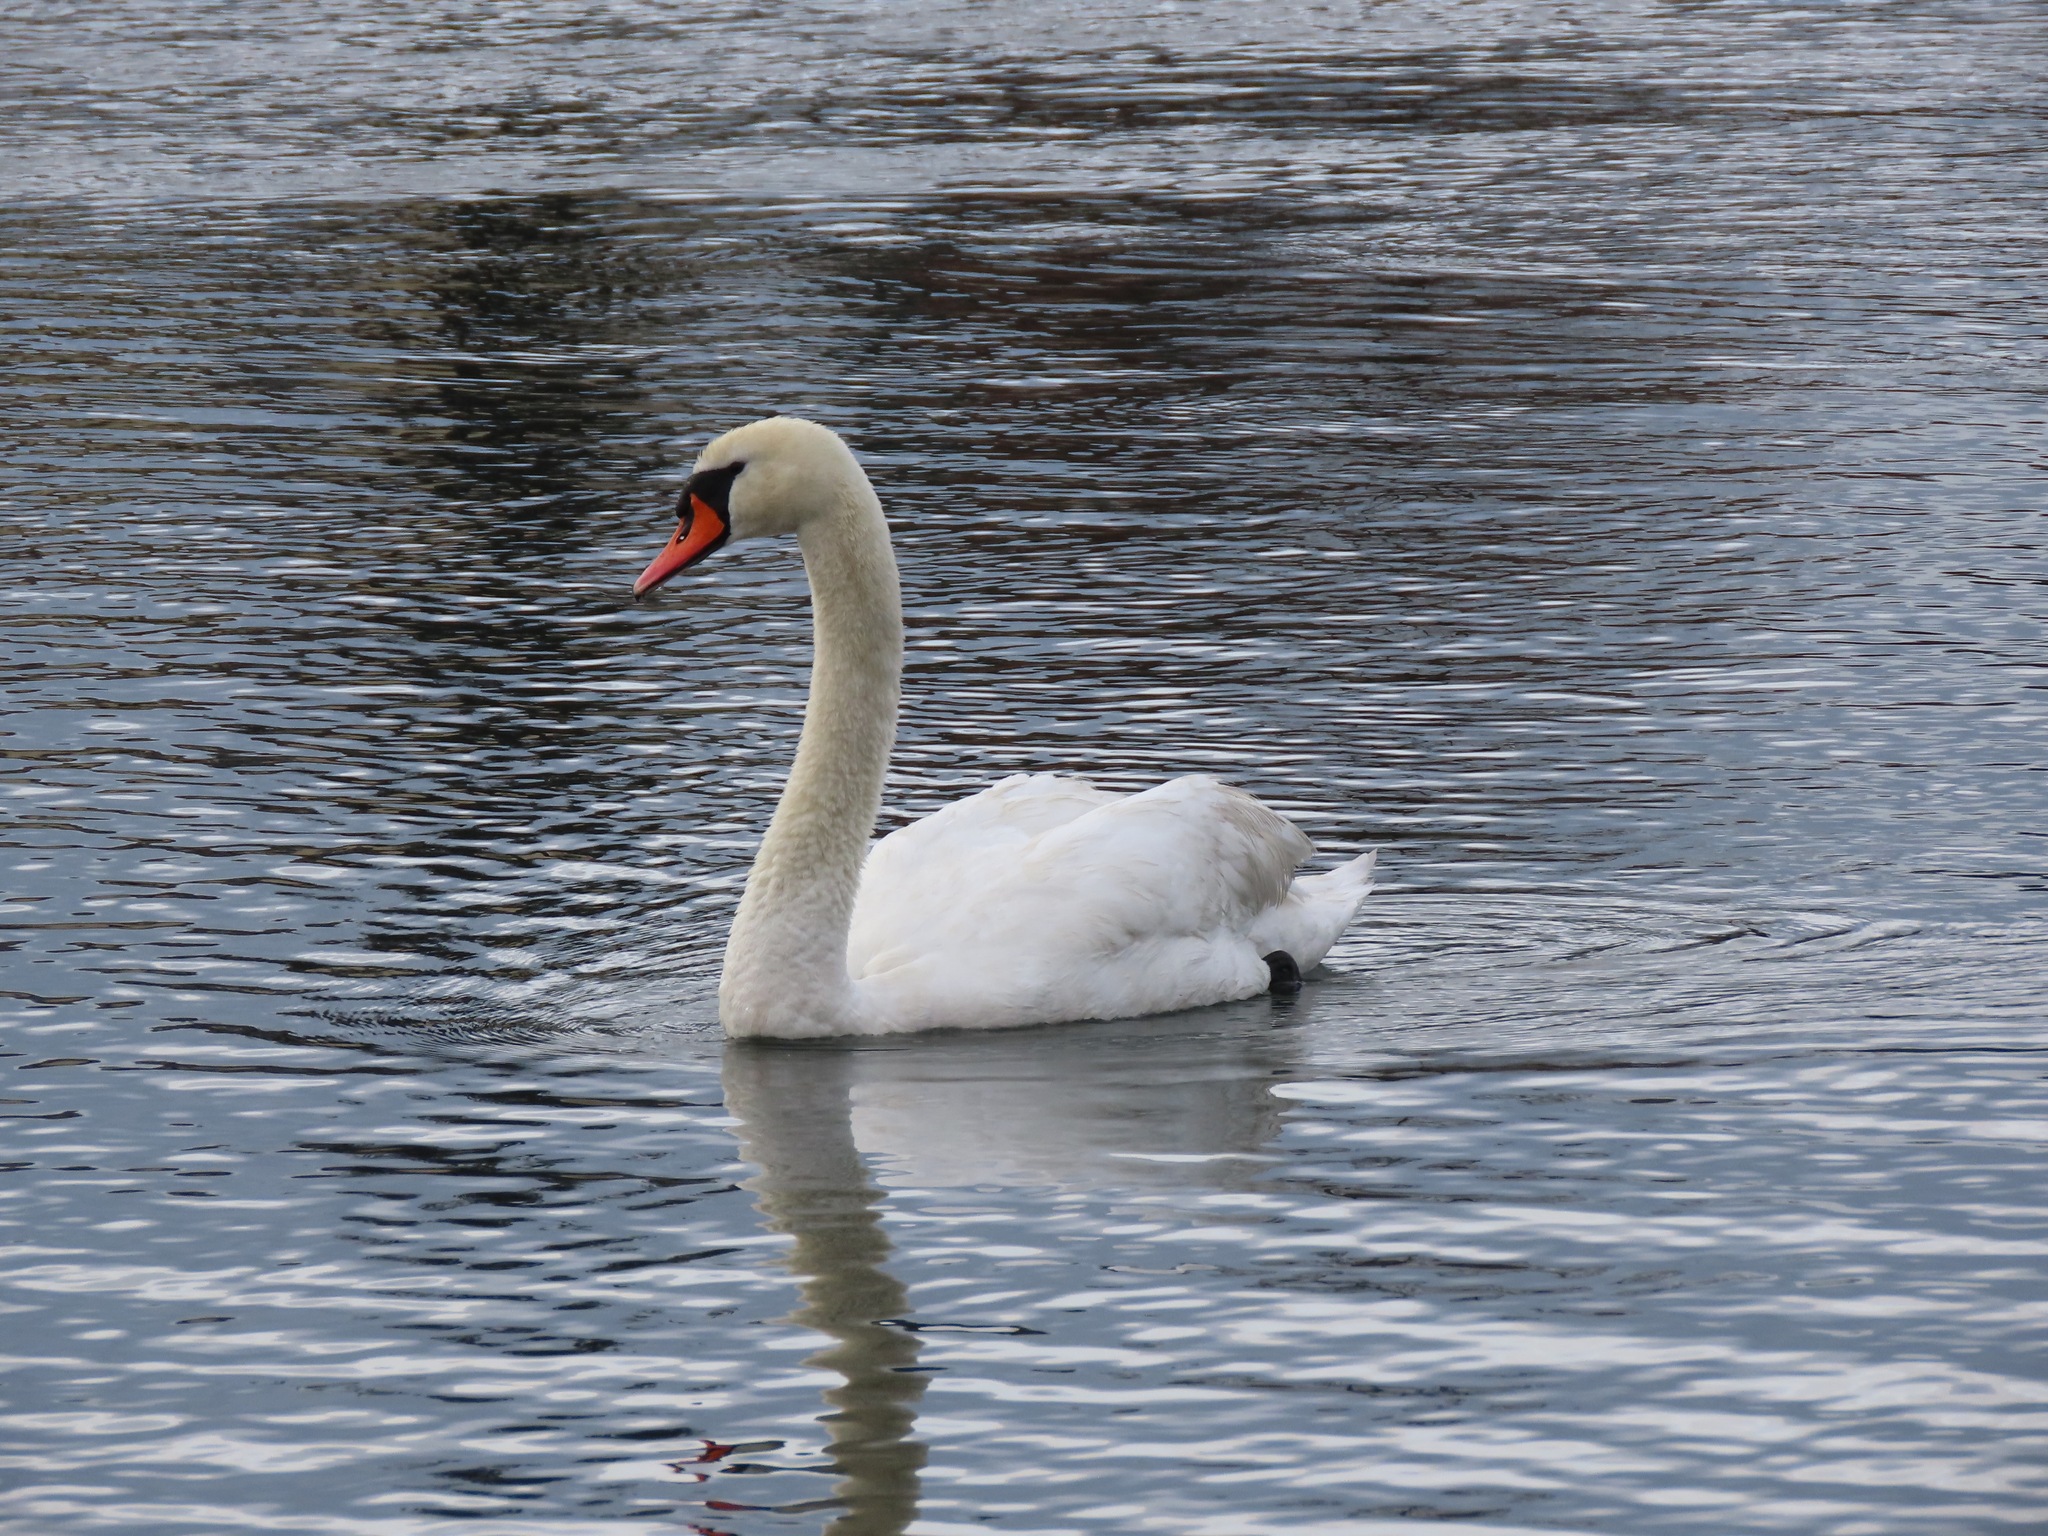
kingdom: Animalia
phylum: Chordata
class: Aves
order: Anseriformes
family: Anatidae
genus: Cygnus
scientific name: Cygnus olor
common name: Mute swan
